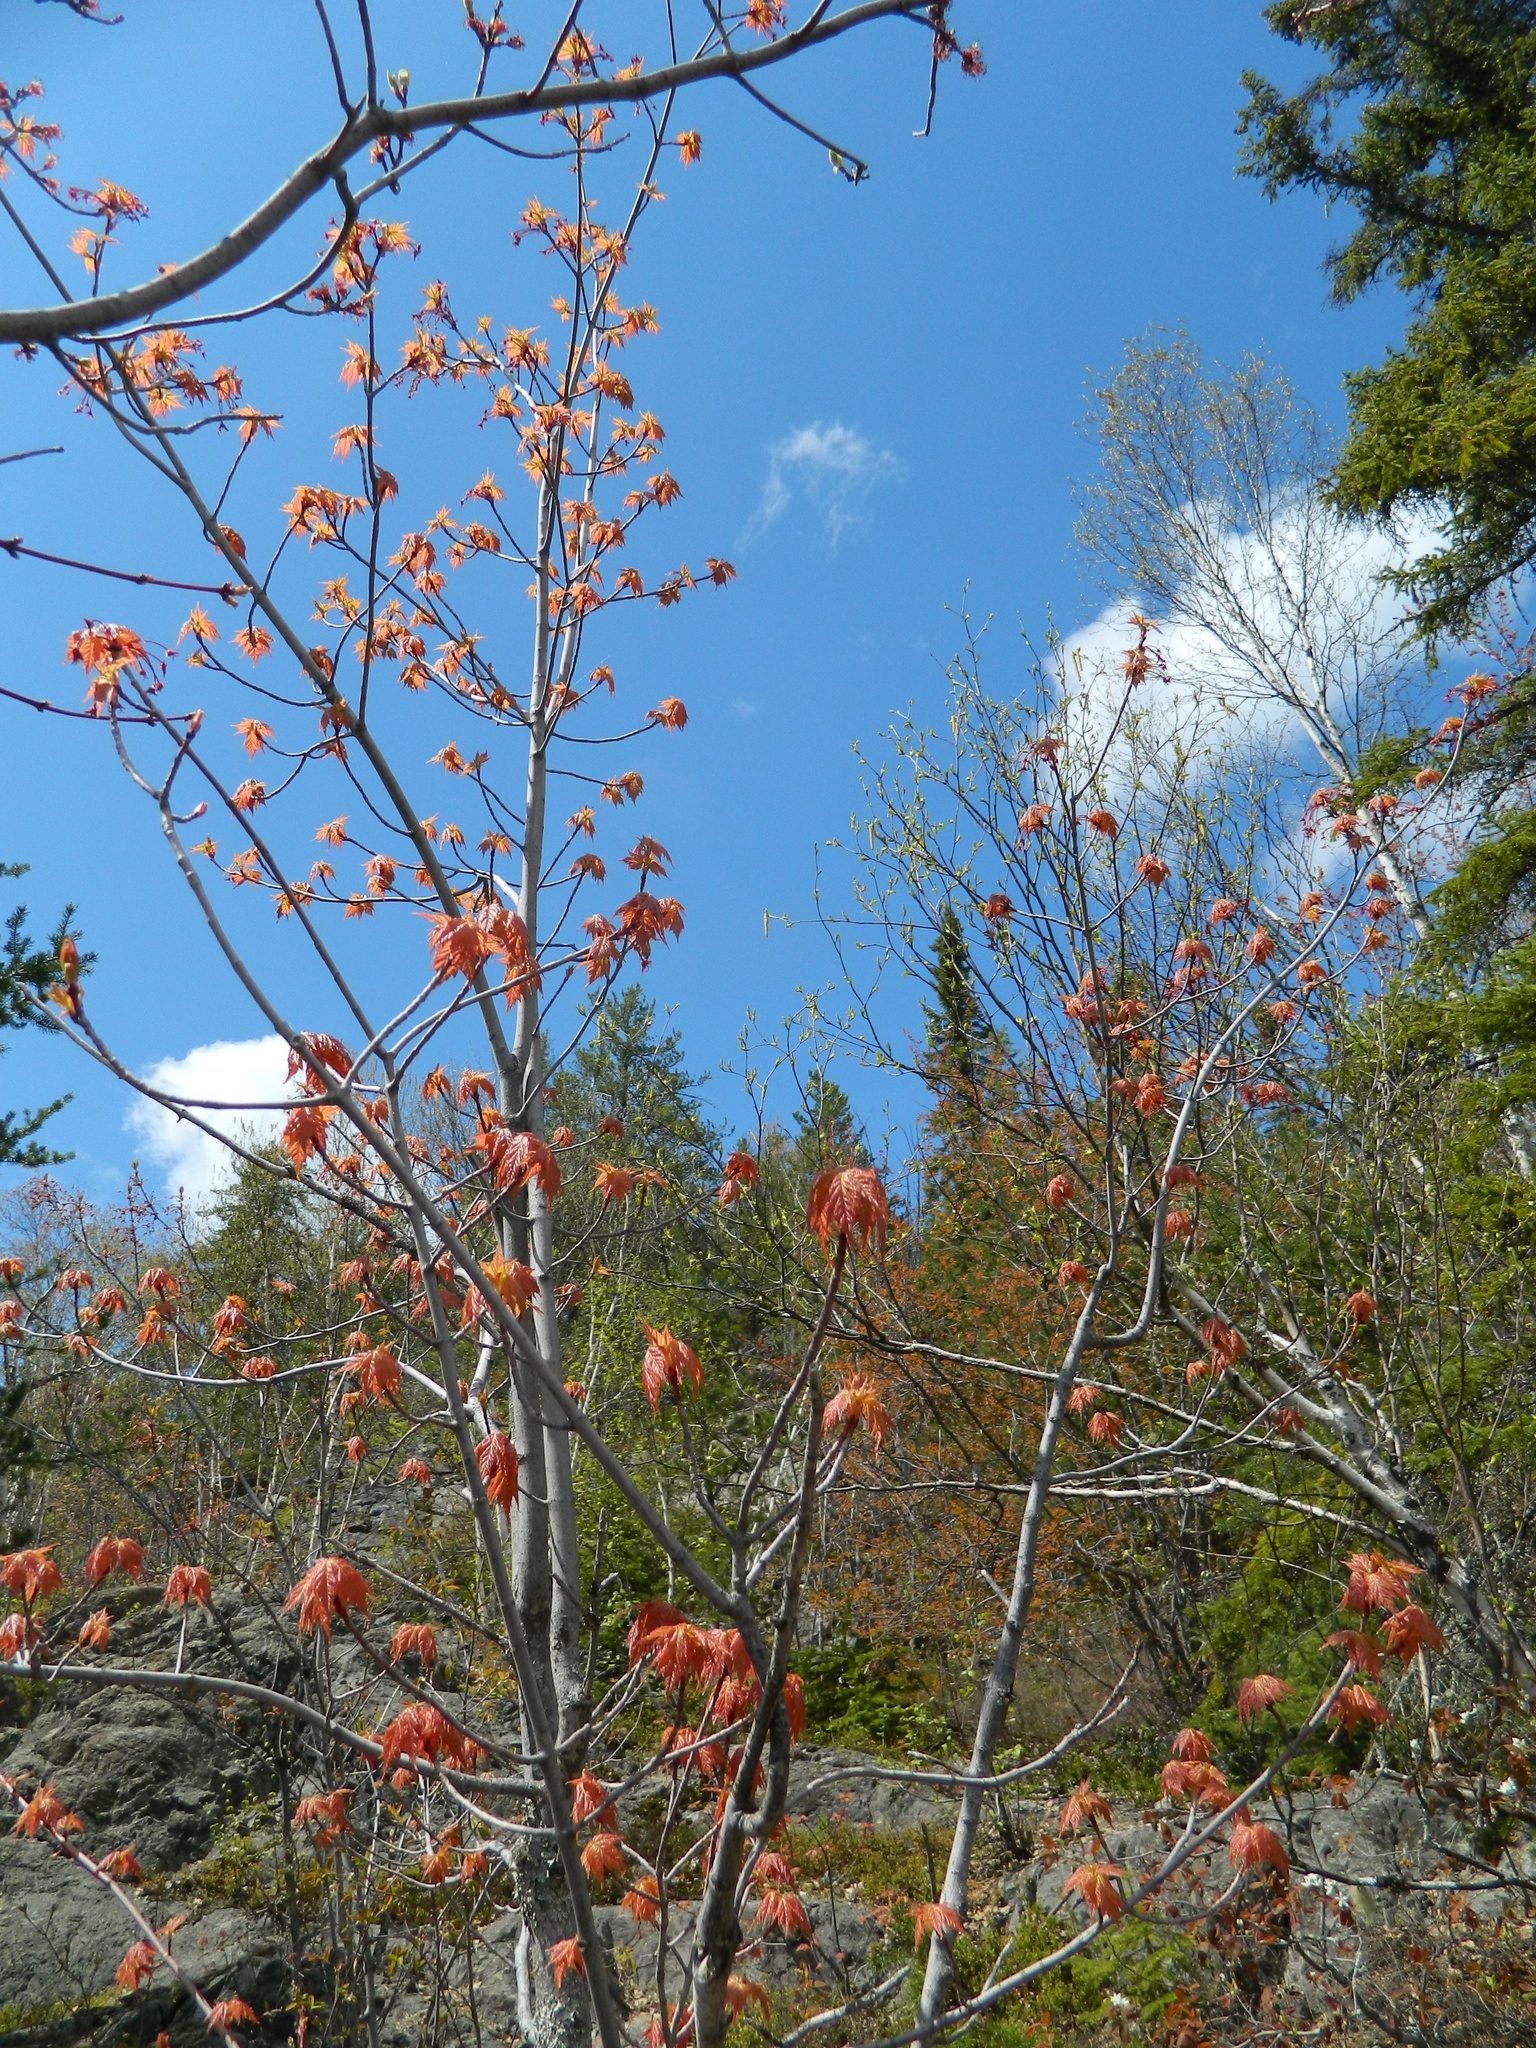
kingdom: Plantae
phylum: Tracheophyta
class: Magnoliopsida
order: Sapindales
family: Sapindaceae
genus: Acer
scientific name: Acer rubrum
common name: Red maple
